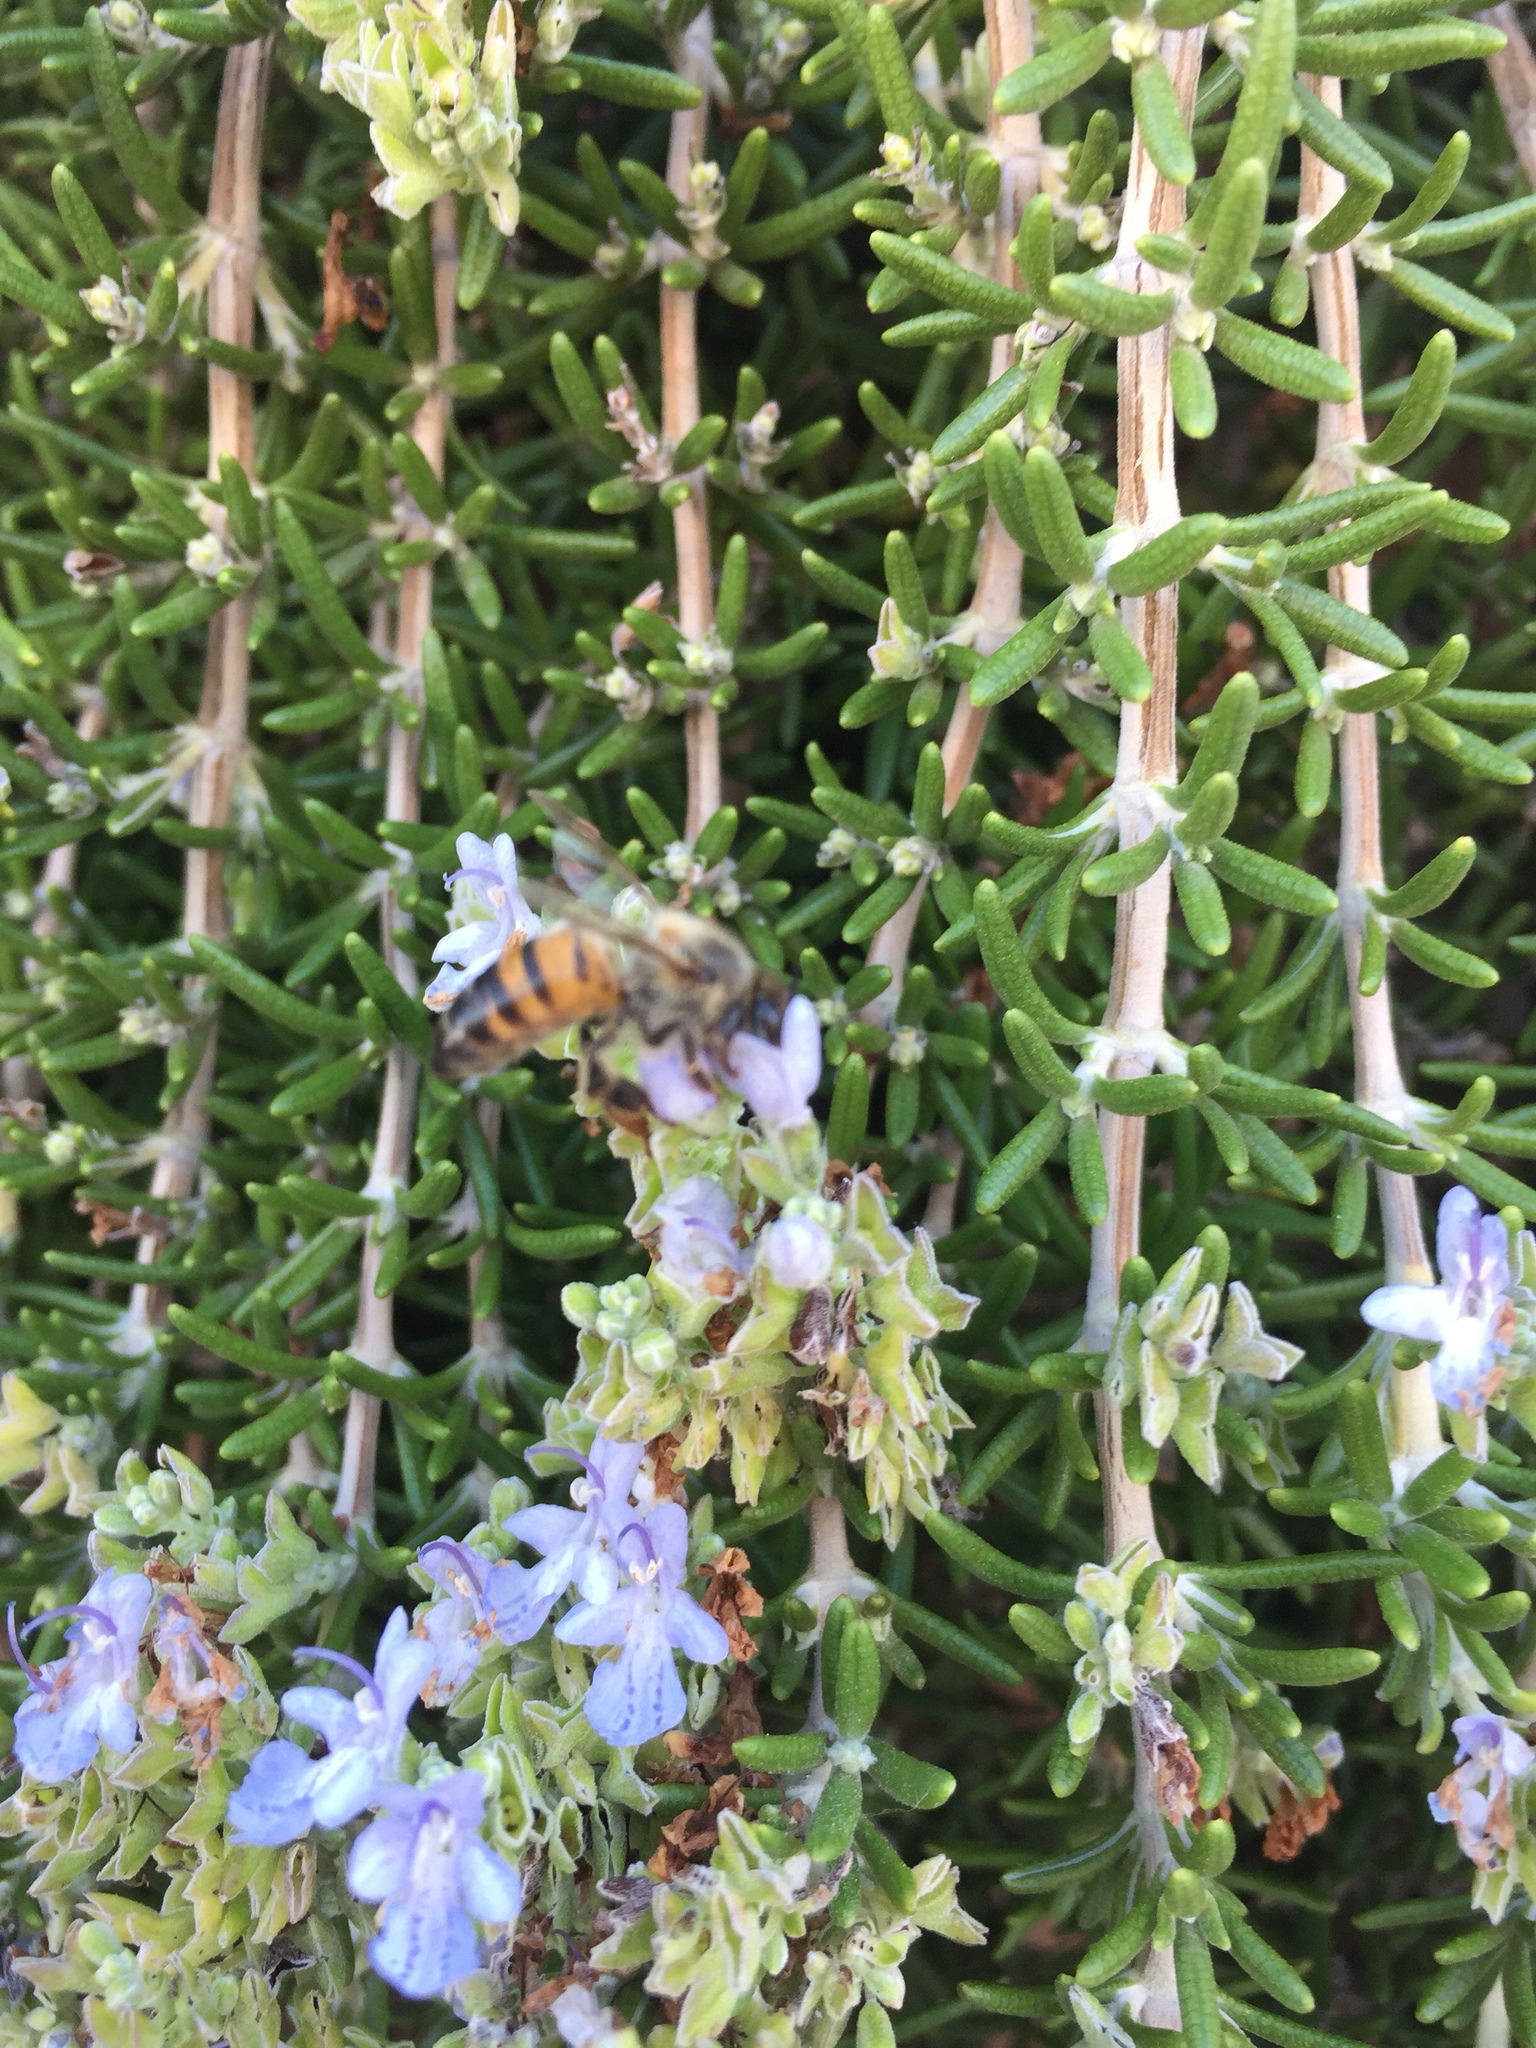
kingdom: Animalia
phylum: Arthropoda
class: Insecta
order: Hymenoptera
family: Apidae
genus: Apis
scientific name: Apis mellifera
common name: Honey bee
